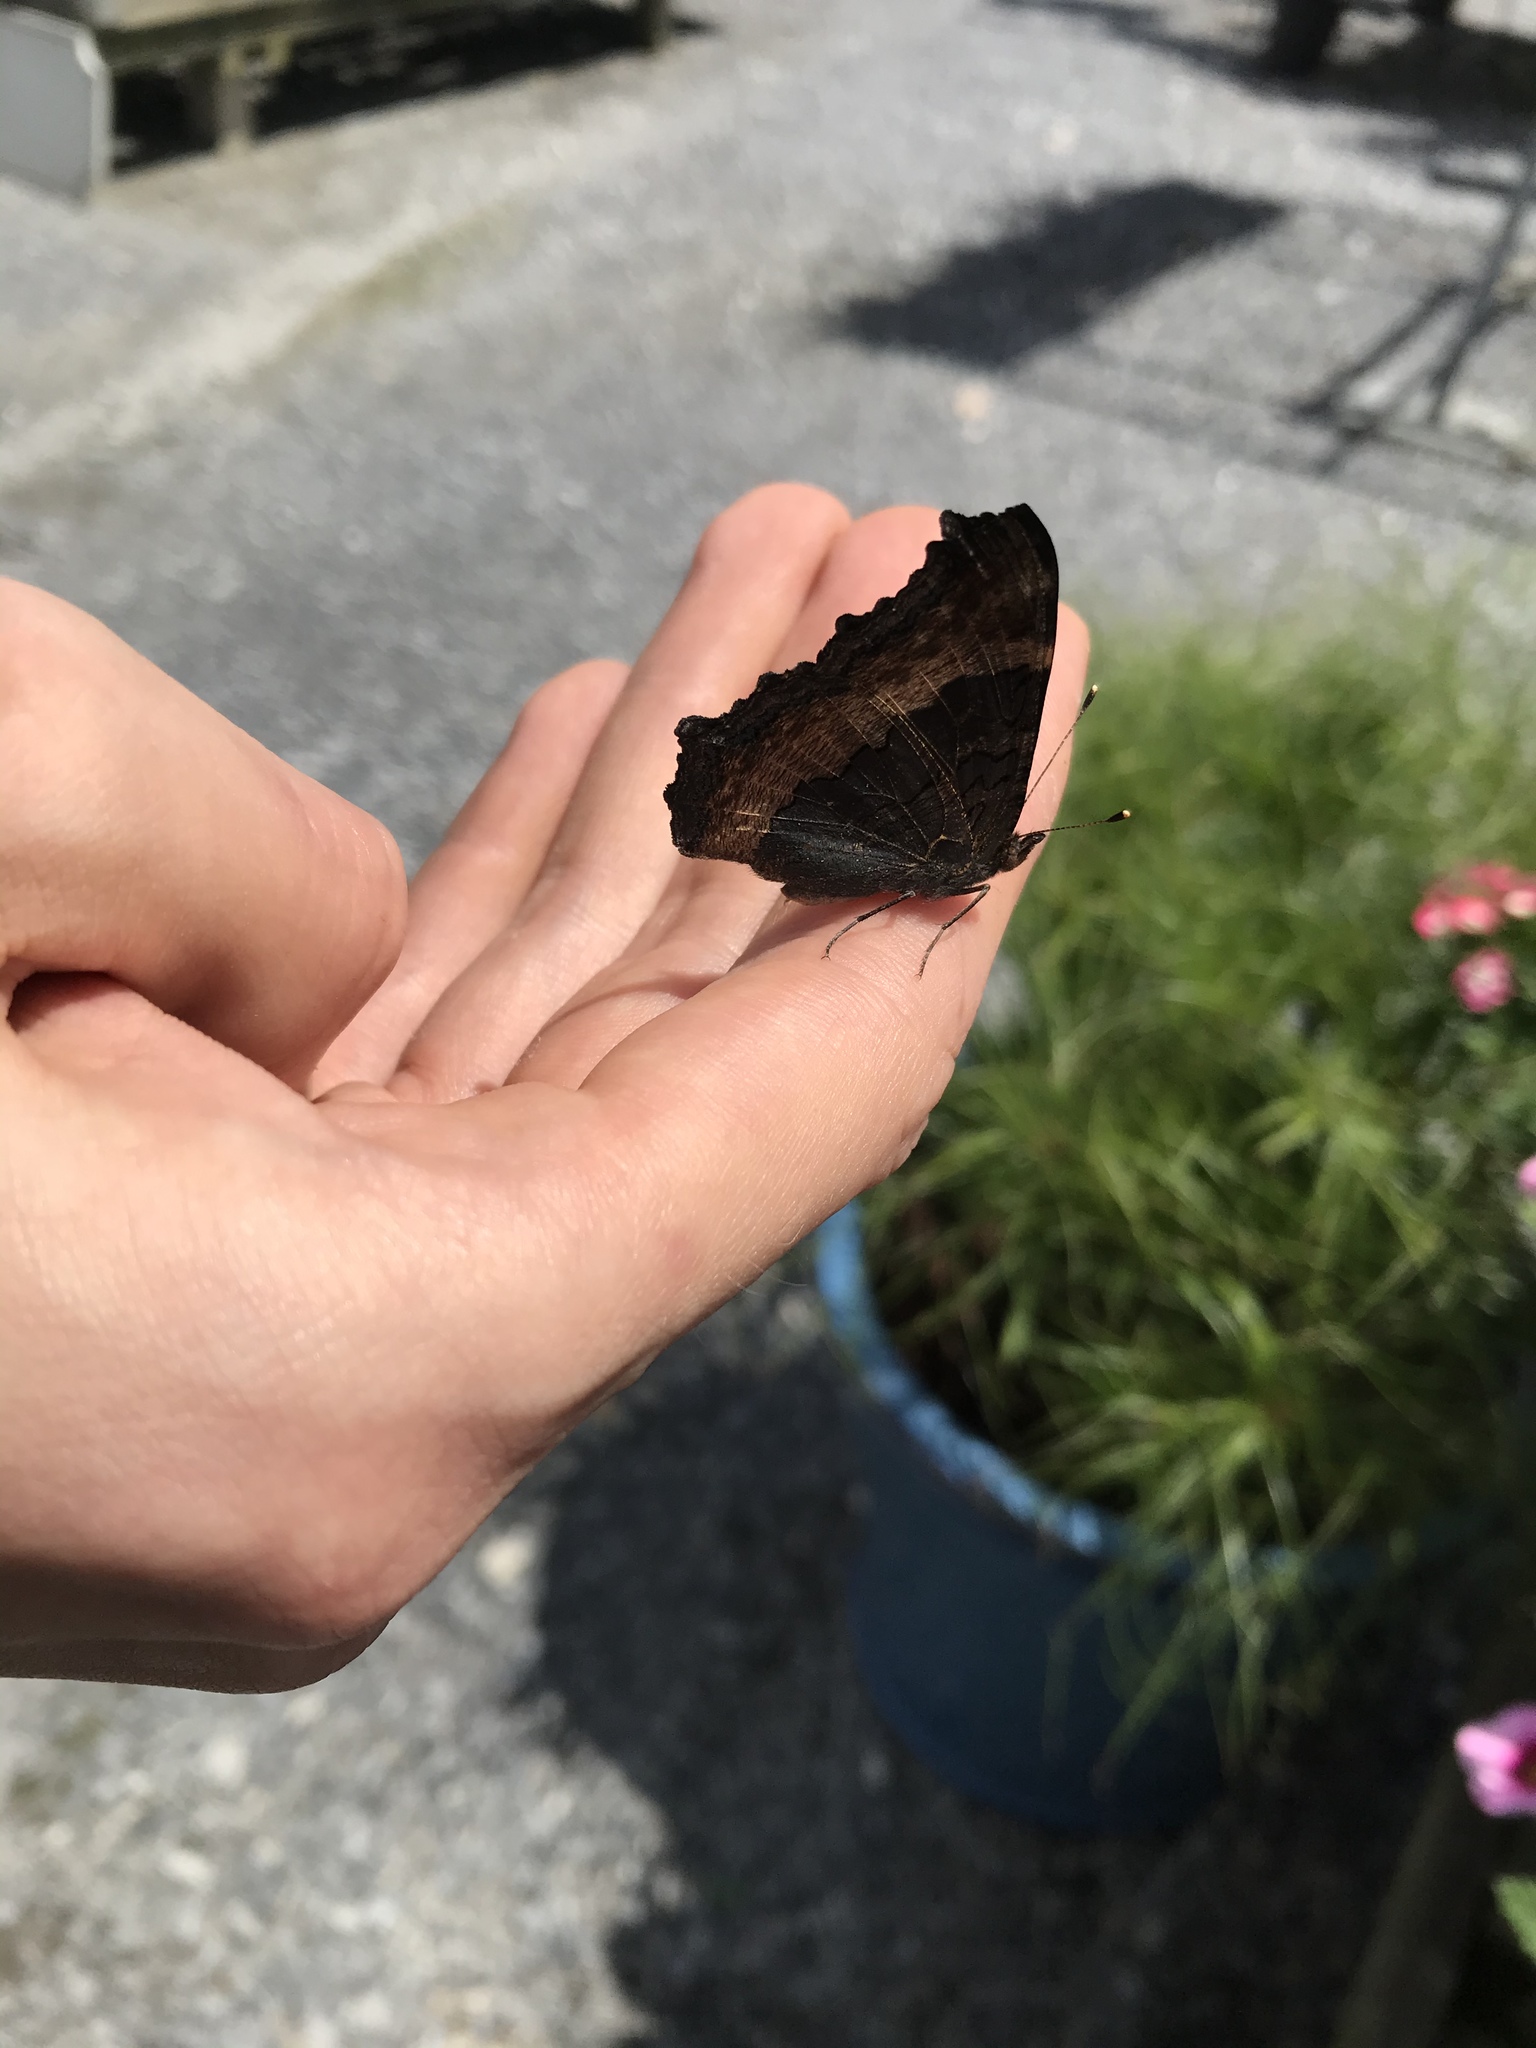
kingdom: Animalia
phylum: Arthropoda
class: Insecta
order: Lepidoptera
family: Nymphalidae
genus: Aglais
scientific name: Aglais milberti
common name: Milbert's tortoiseshell
